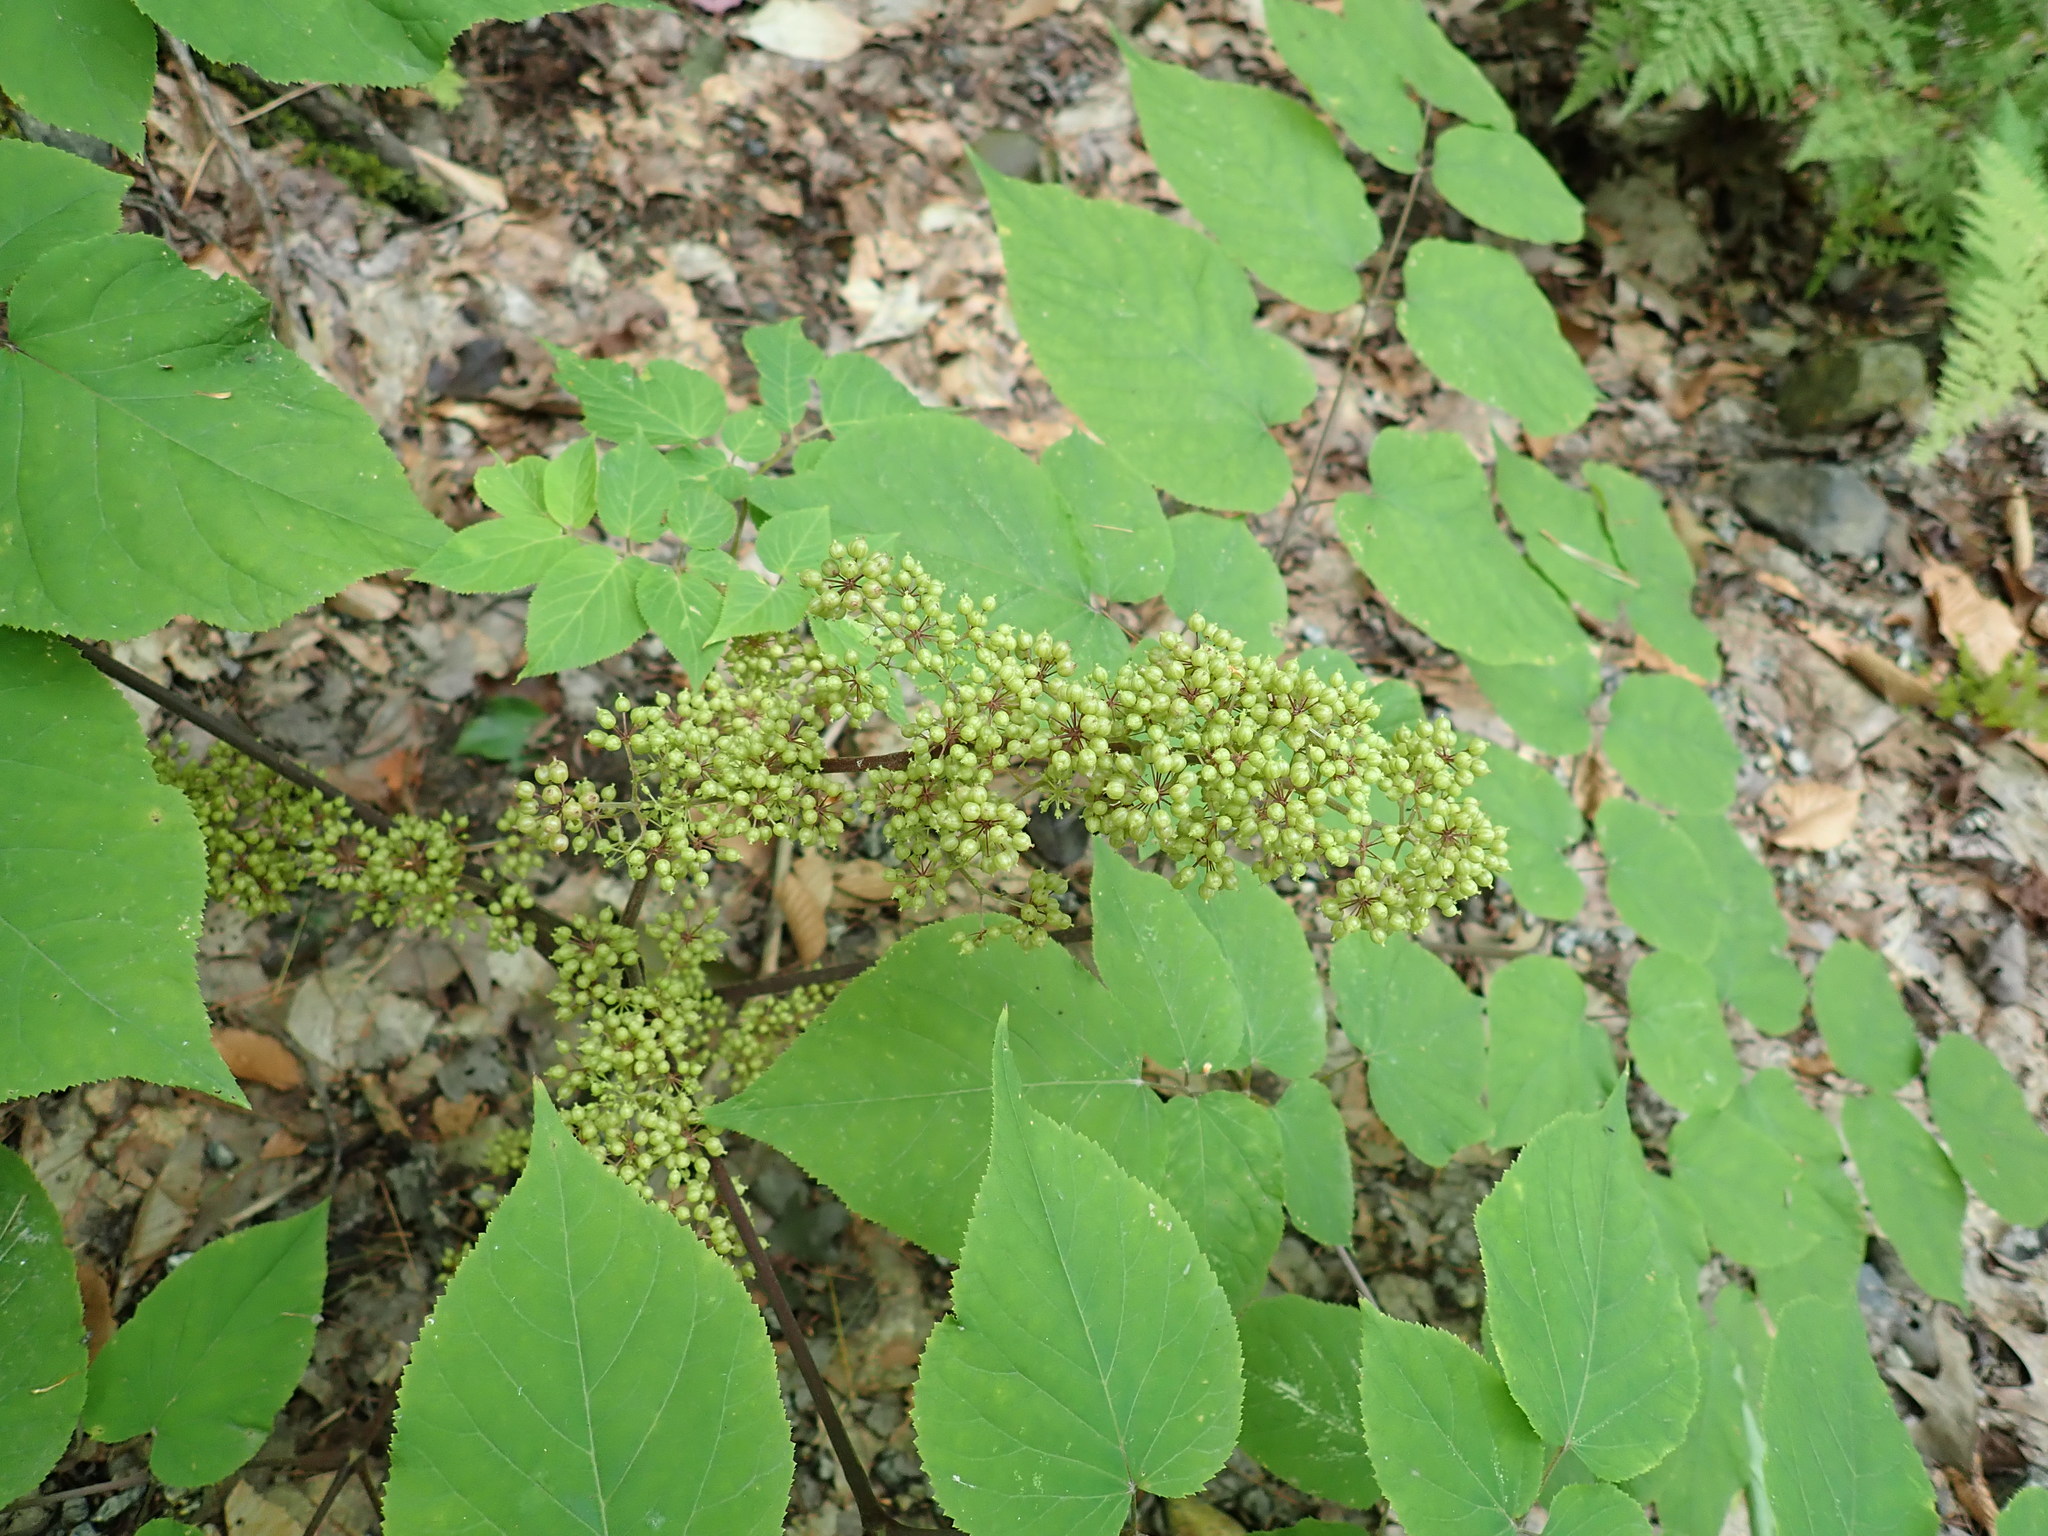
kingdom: Plantae
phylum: Tracheophyta
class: Magnoliopsida
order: Apiales
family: Araliaceae
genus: Aralia
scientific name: Aralia racemosa
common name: American-spikenard
